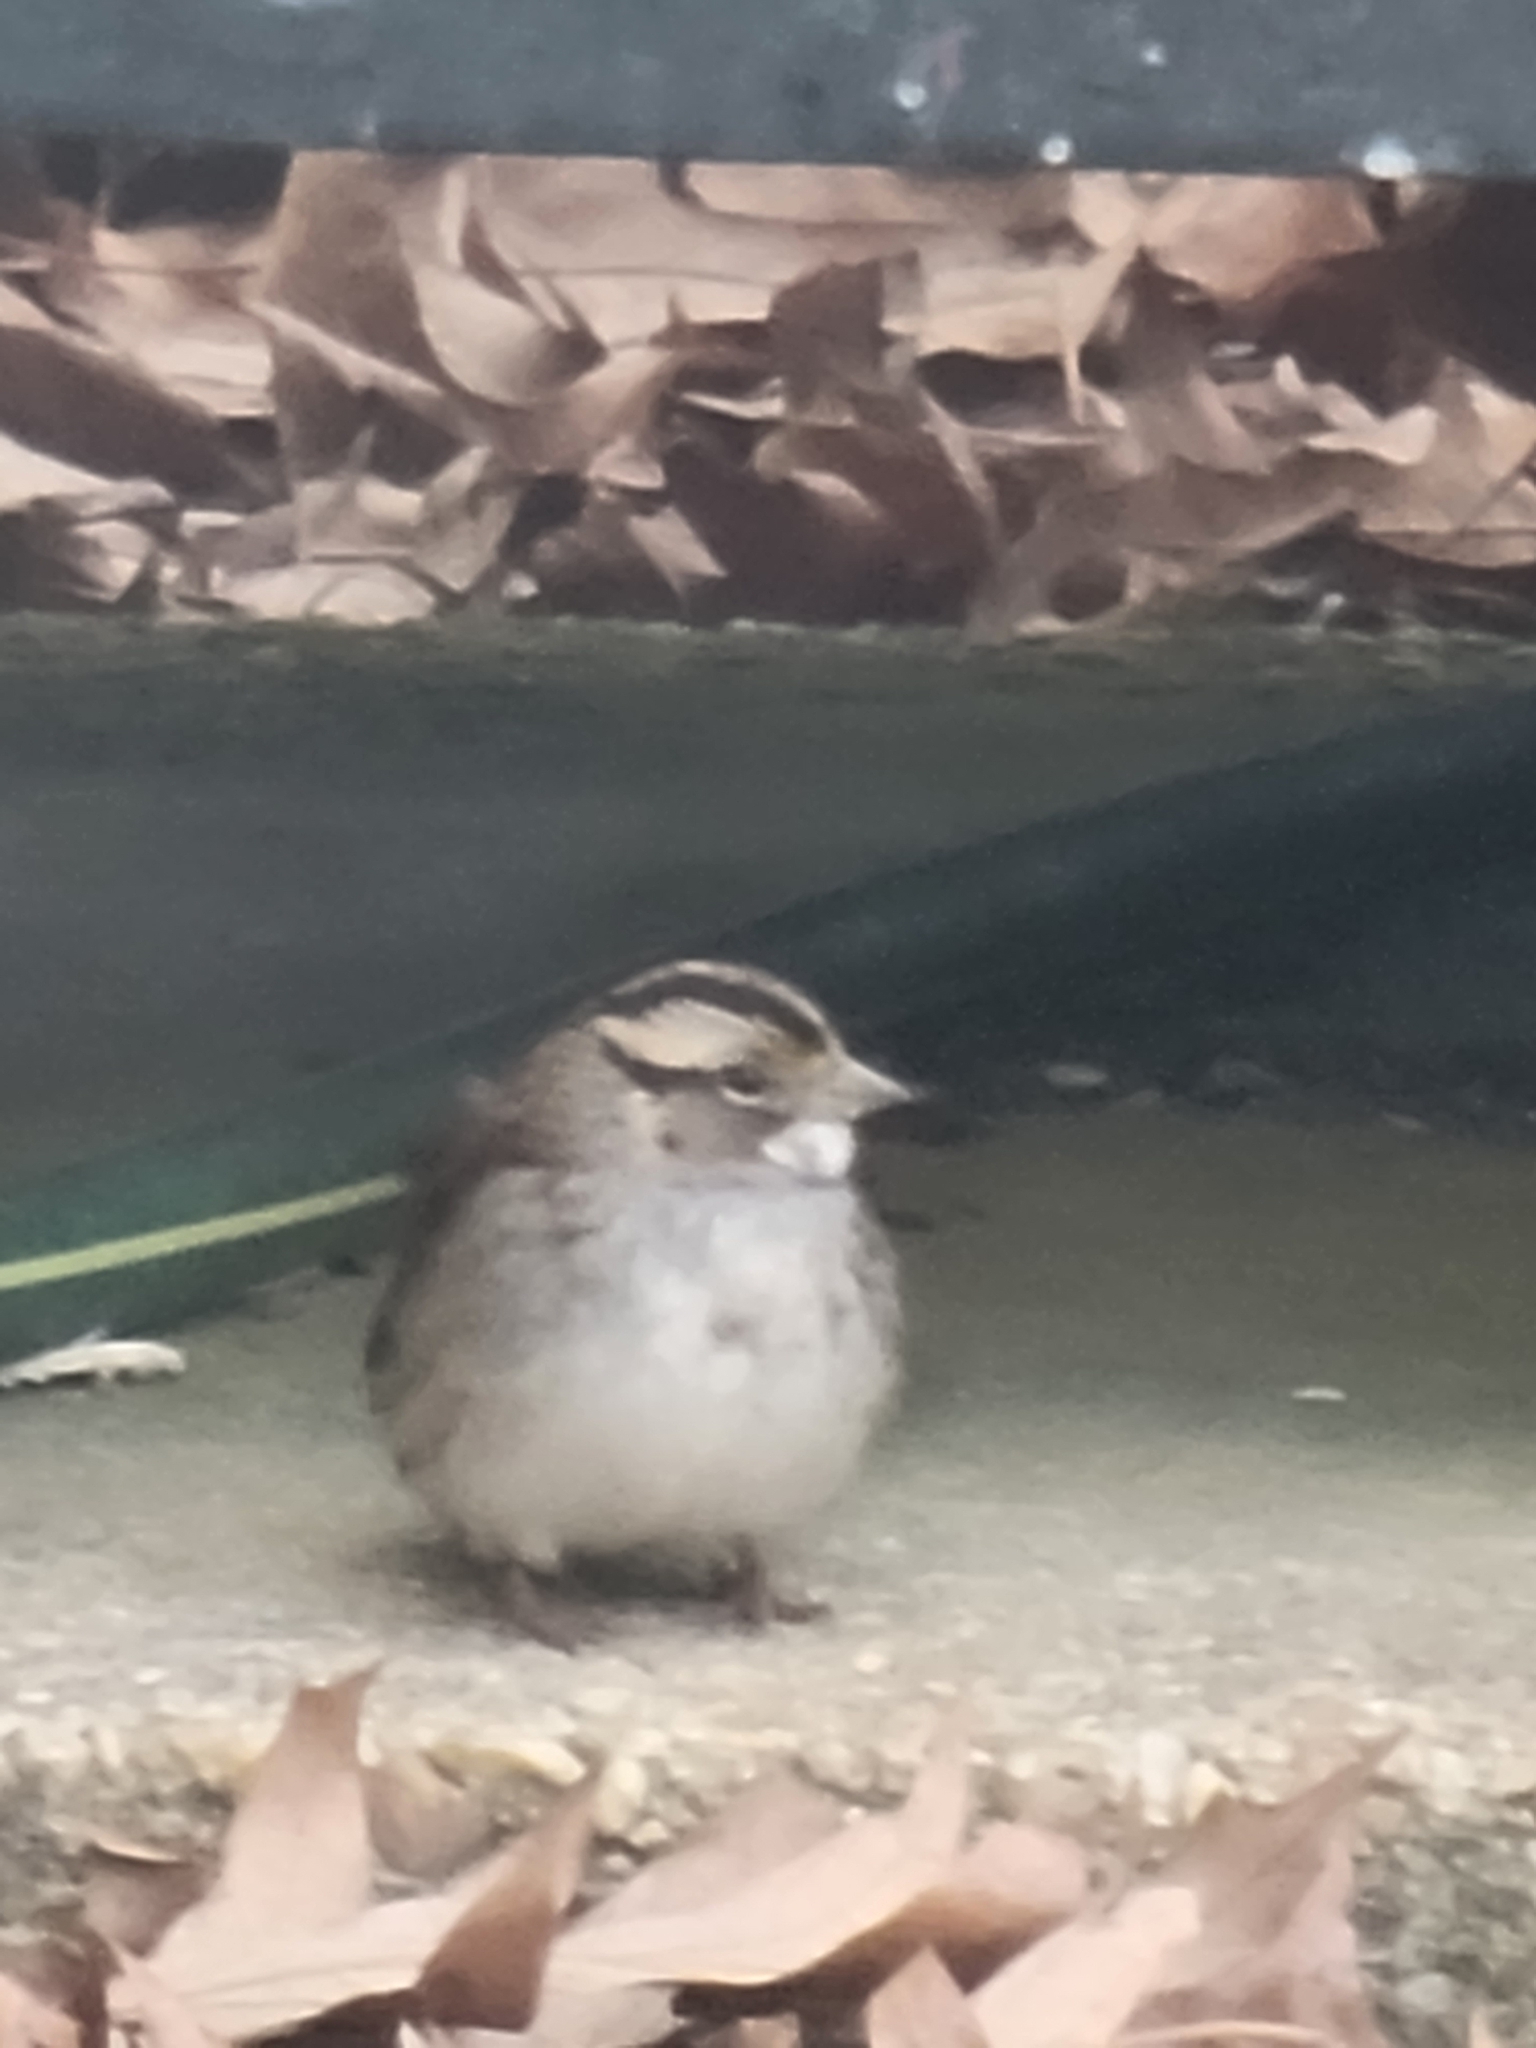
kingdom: Animalia
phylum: Chordata
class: Aves
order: Passeriformes
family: Passerellidae
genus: Zonotrichia
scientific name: Zonotrichia albicollis
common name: White-throated sparrow
